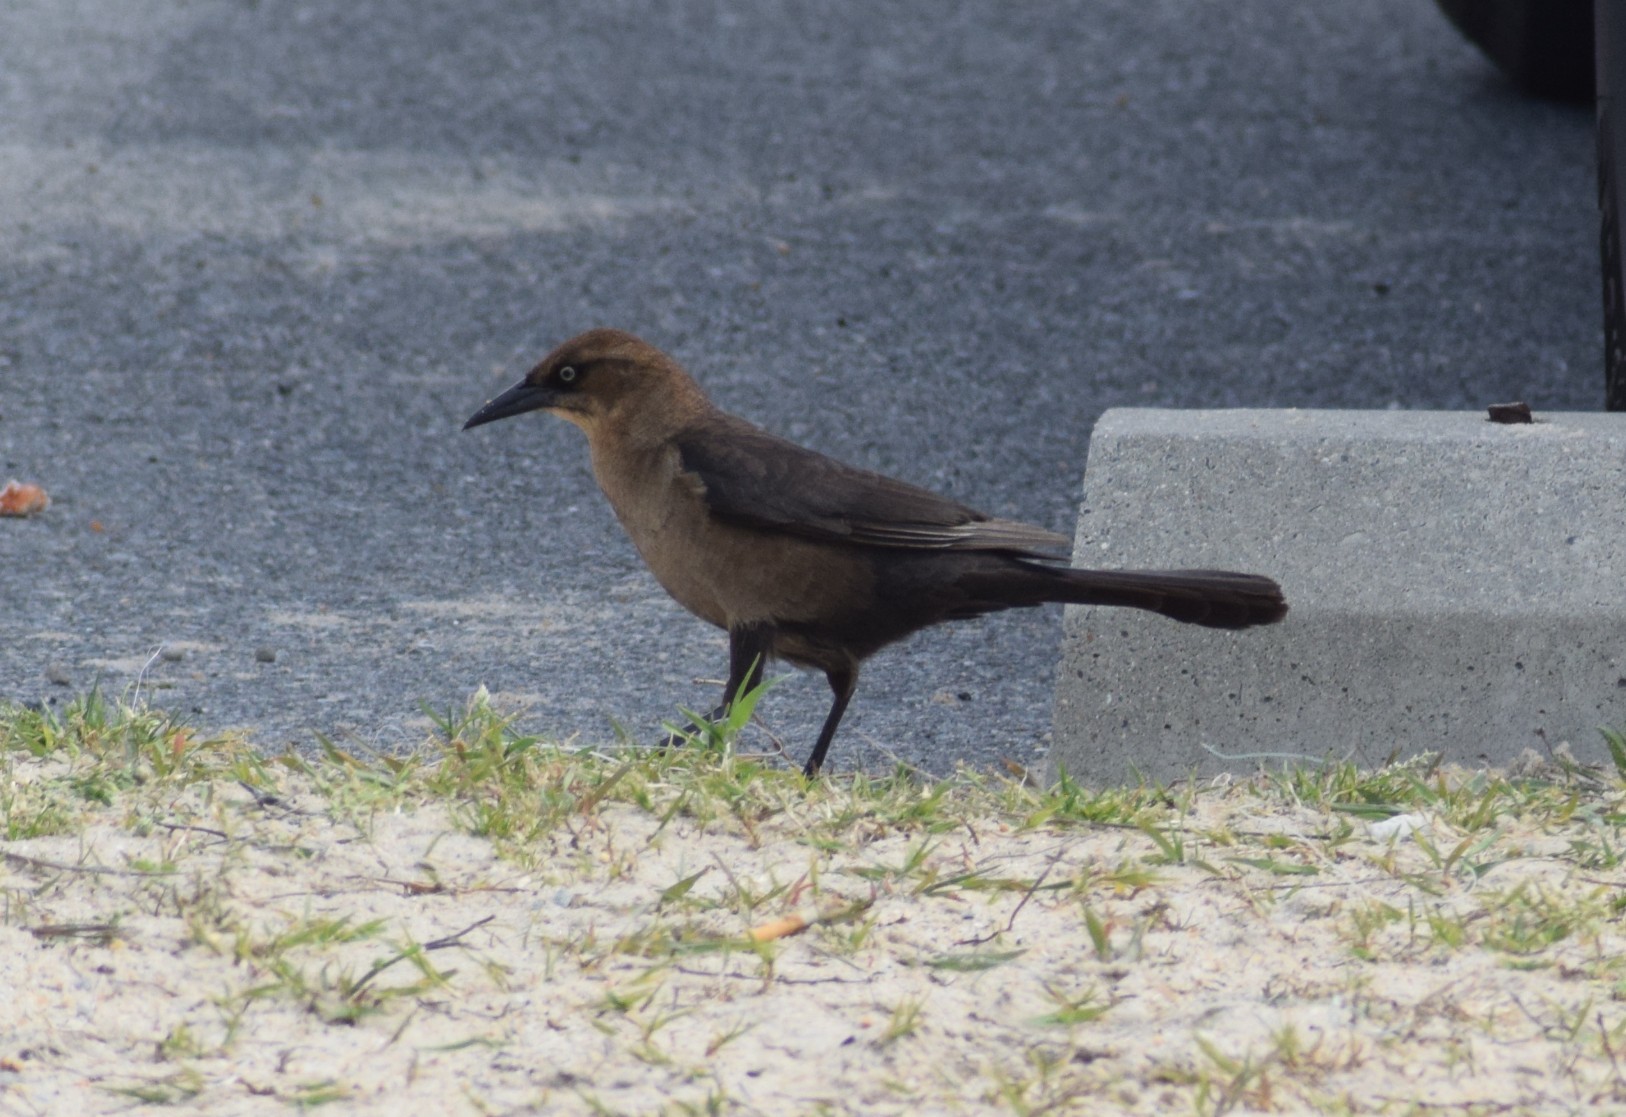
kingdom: Animalia
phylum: Chordata
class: Aves
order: Passeriformes
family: Icteridae
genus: Quiscalus
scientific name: Quiscalus major
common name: Boat-tailed grackle
